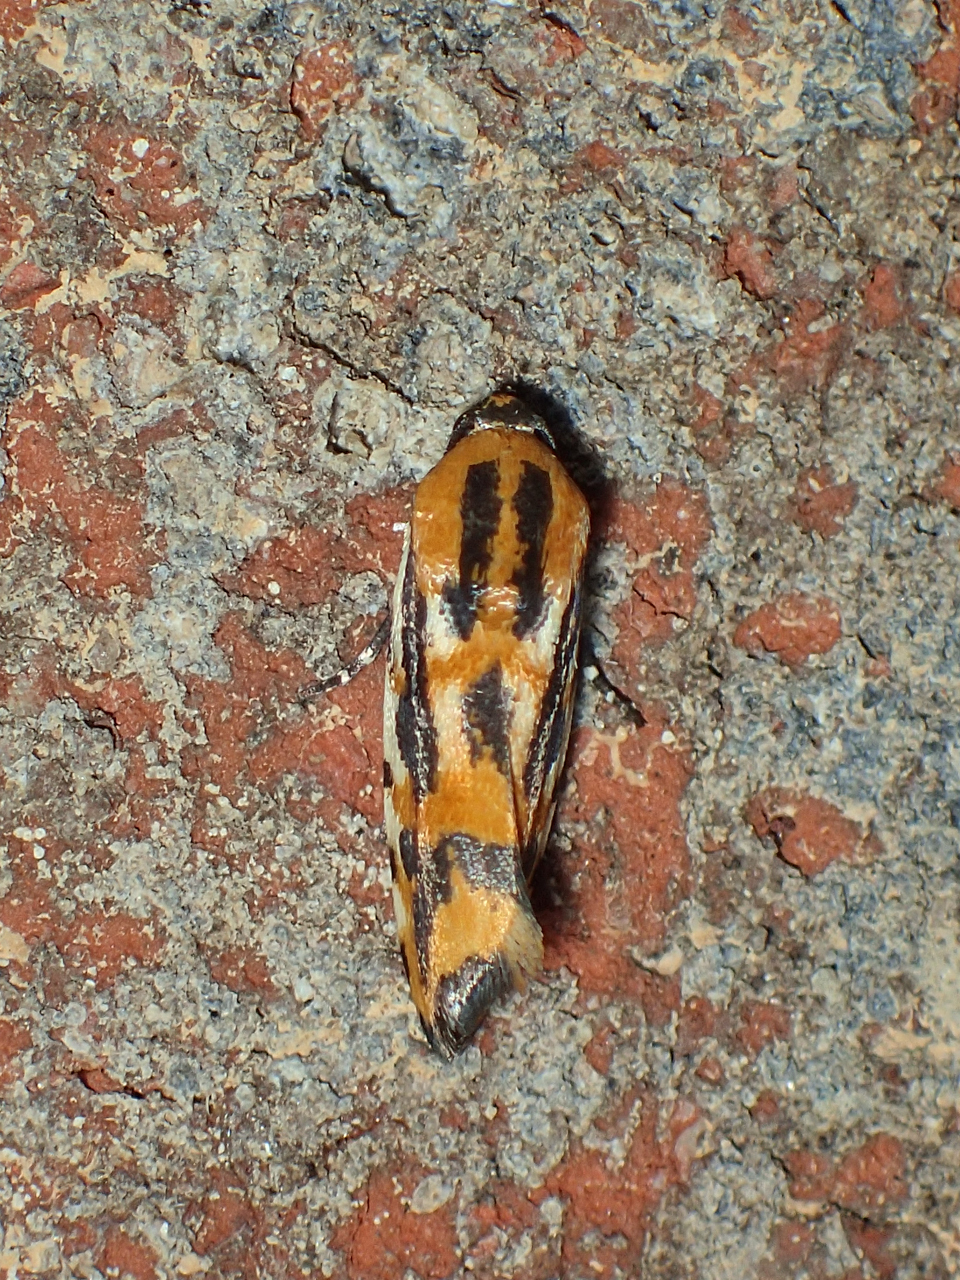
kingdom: Animalia
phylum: Arthropoda
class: Insecta
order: Lepidoptera
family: Noctuidae
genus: Acontia
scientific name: Acontia leo
